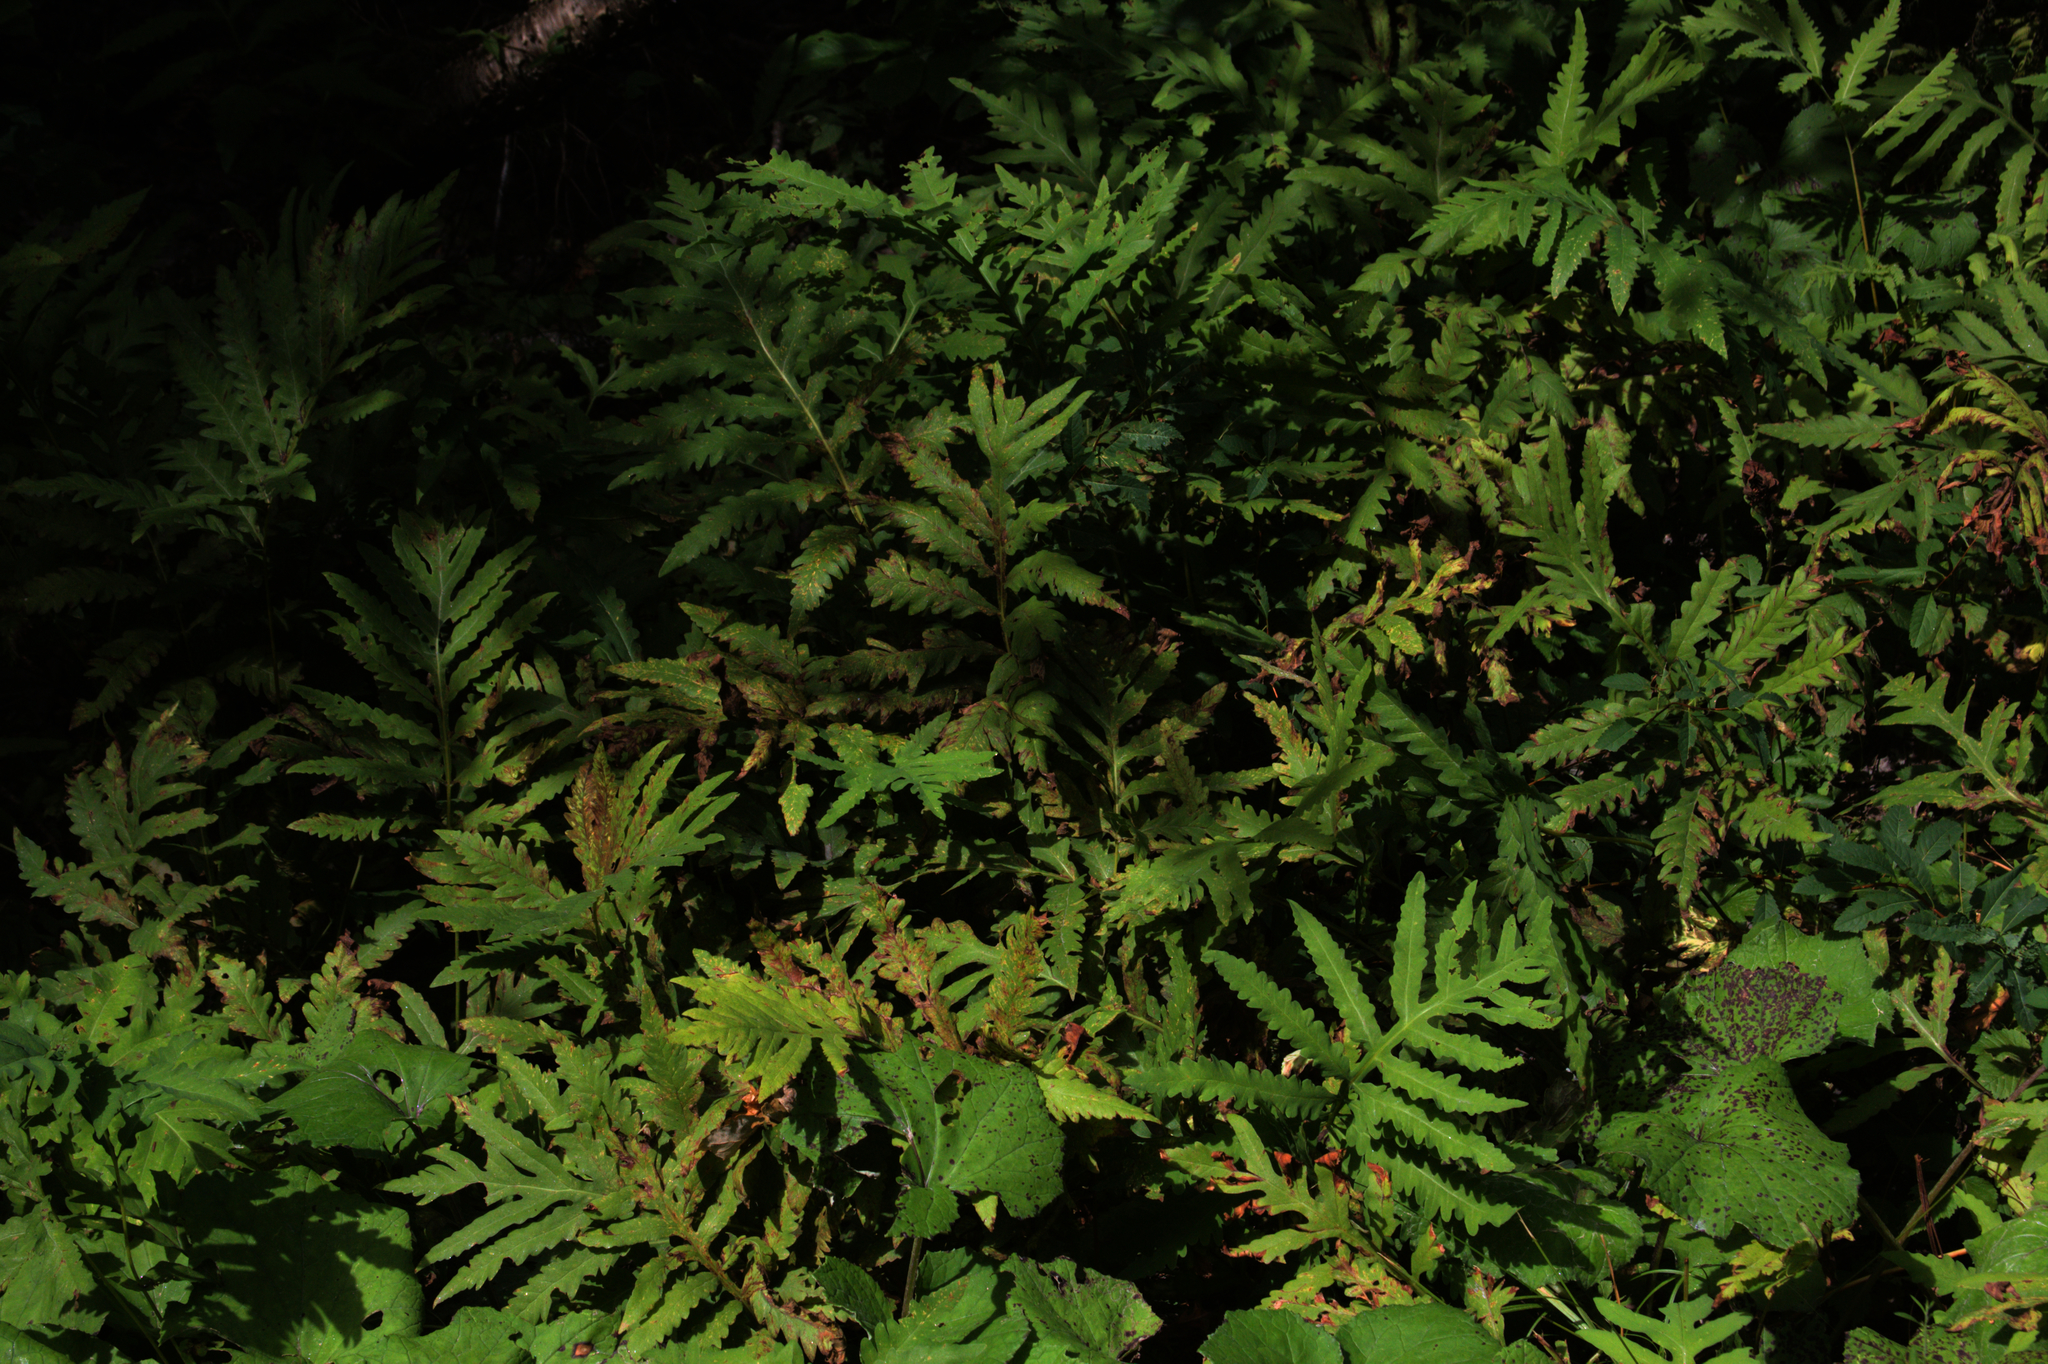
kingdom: Plantae
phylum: Tracheophyta
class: Polypodiopsida
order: Polypodiales
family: Onocleaceae
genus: Onoclea
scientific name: Onoclea sensibilis
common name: Sensitive fern
